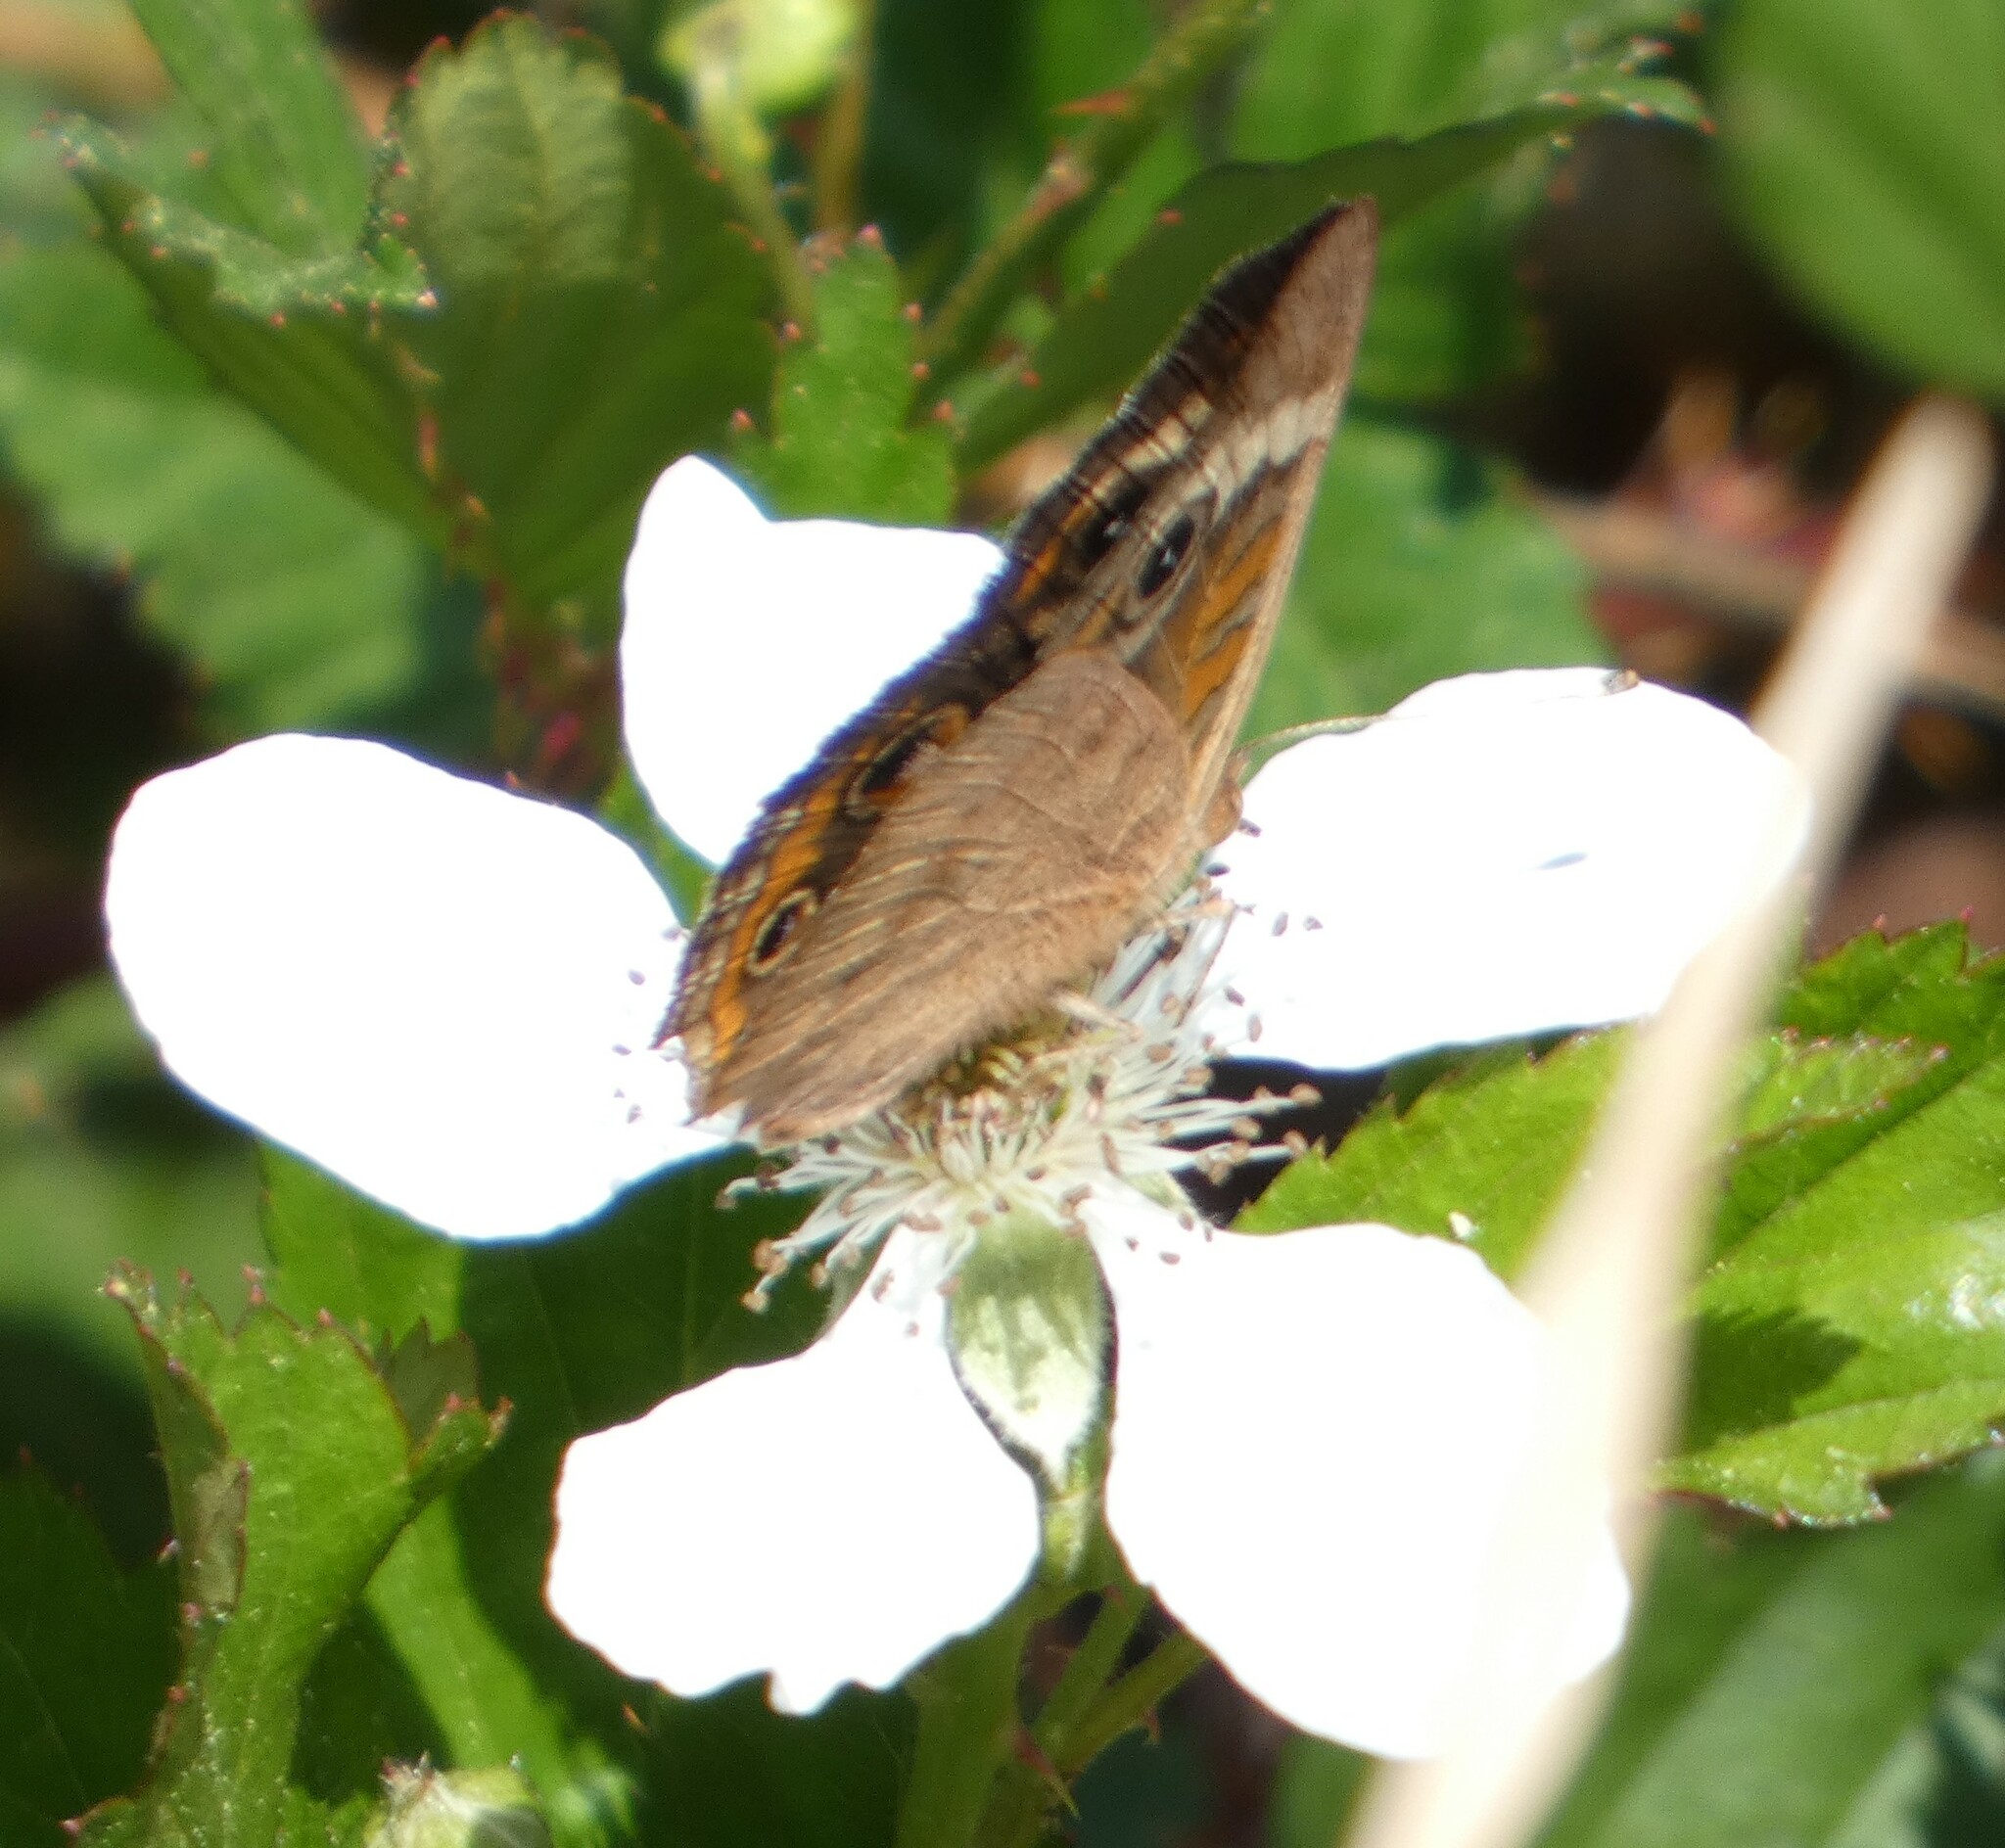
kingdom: Animalia
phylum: Arthropoda
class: Insecta
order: Lepidoptera
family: Nymphalidae
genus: Junonia
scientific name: Junonia coenia
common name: Common buckeye
